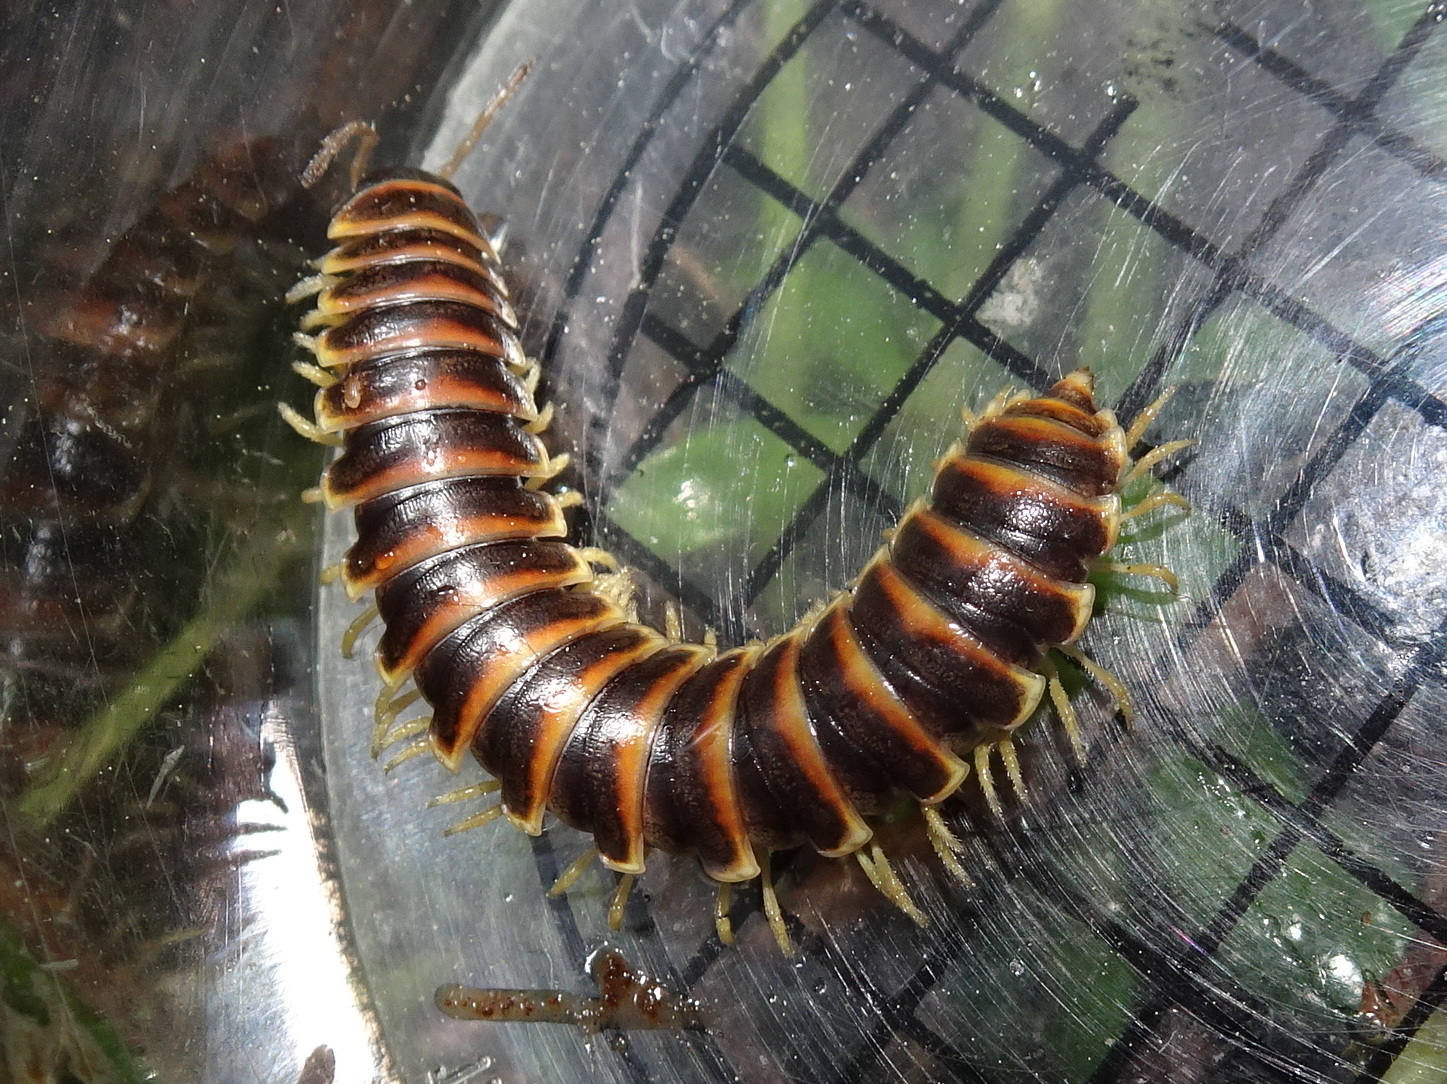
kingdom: Animalia
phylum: Arthropoda
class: Diplopoda
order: Polydesmida
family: Xystodesmidae
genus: Pleuroloma
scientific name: Pleuroloma flavipes
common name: Yellow-legged pleuroloma
